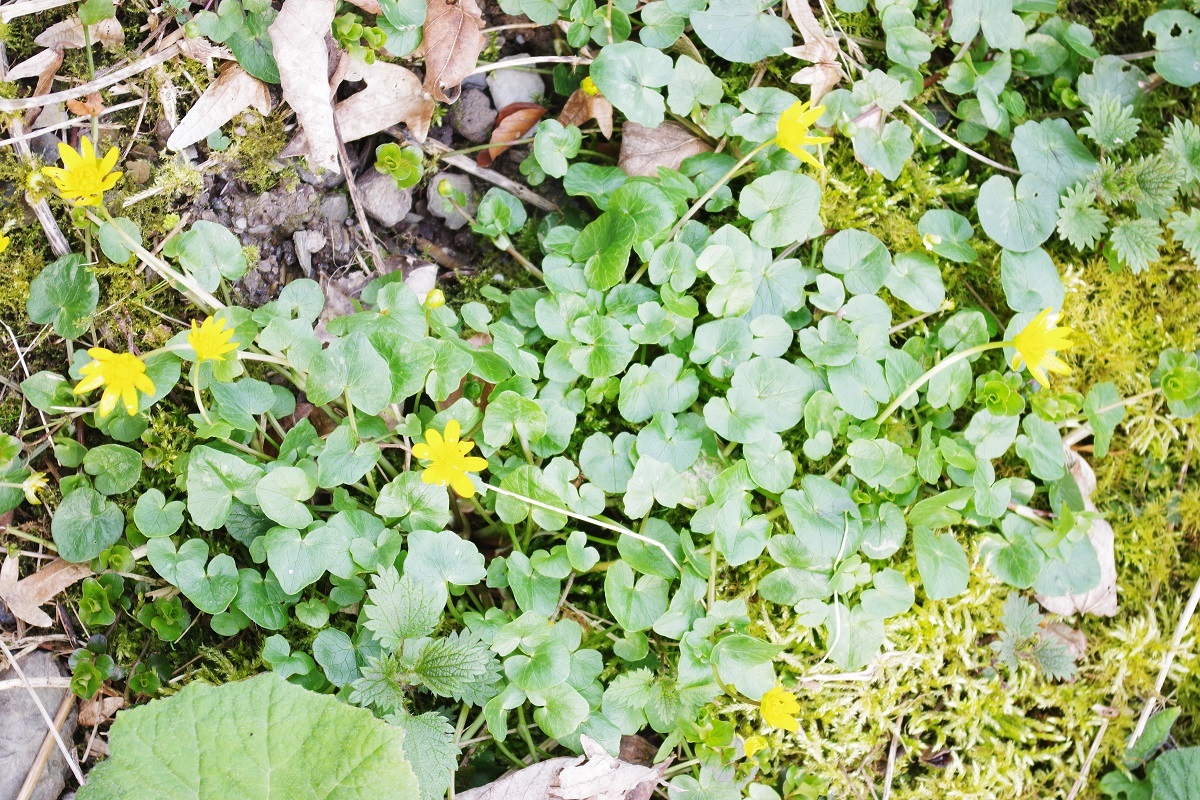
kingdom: Plantae
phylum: Tracheophyta
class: Magnoliopsida
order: Ranunculales
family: Ranunculaceae
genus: Ficaria
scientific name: Ficaria verna
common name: Lesser celandine
